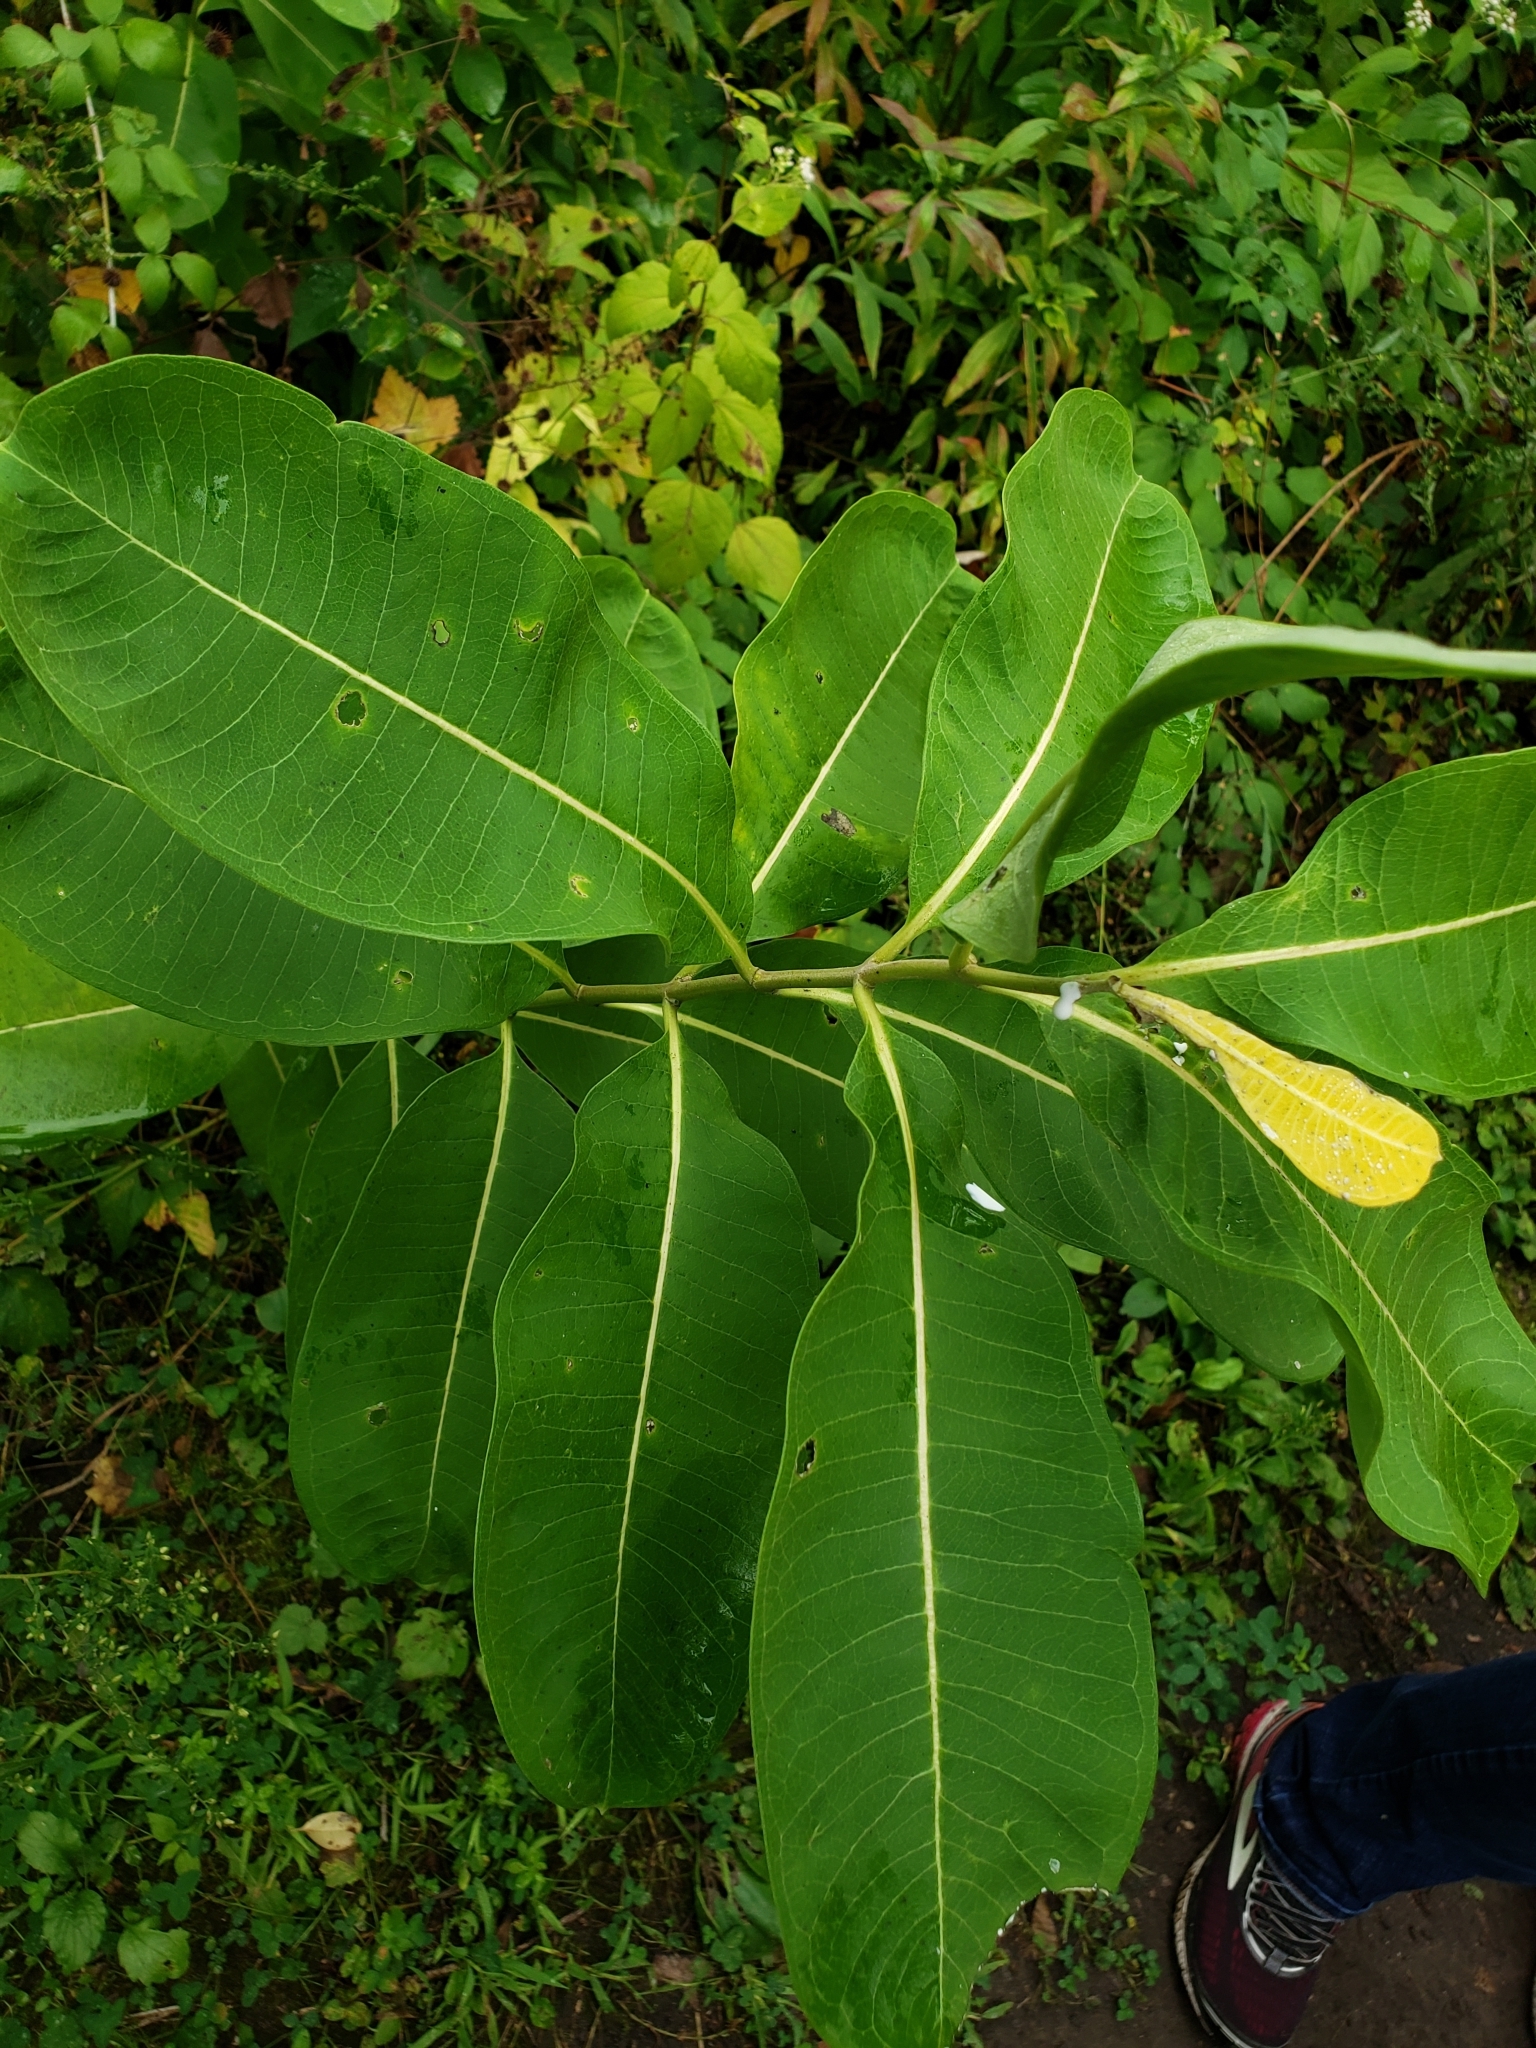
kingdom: Plantae
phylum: Tracheophyta
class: Magnoliopsida
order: Gentianales
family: Apocynaceae
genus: Asclepias
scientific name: Asclepias syriaca
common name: Common milkweed
